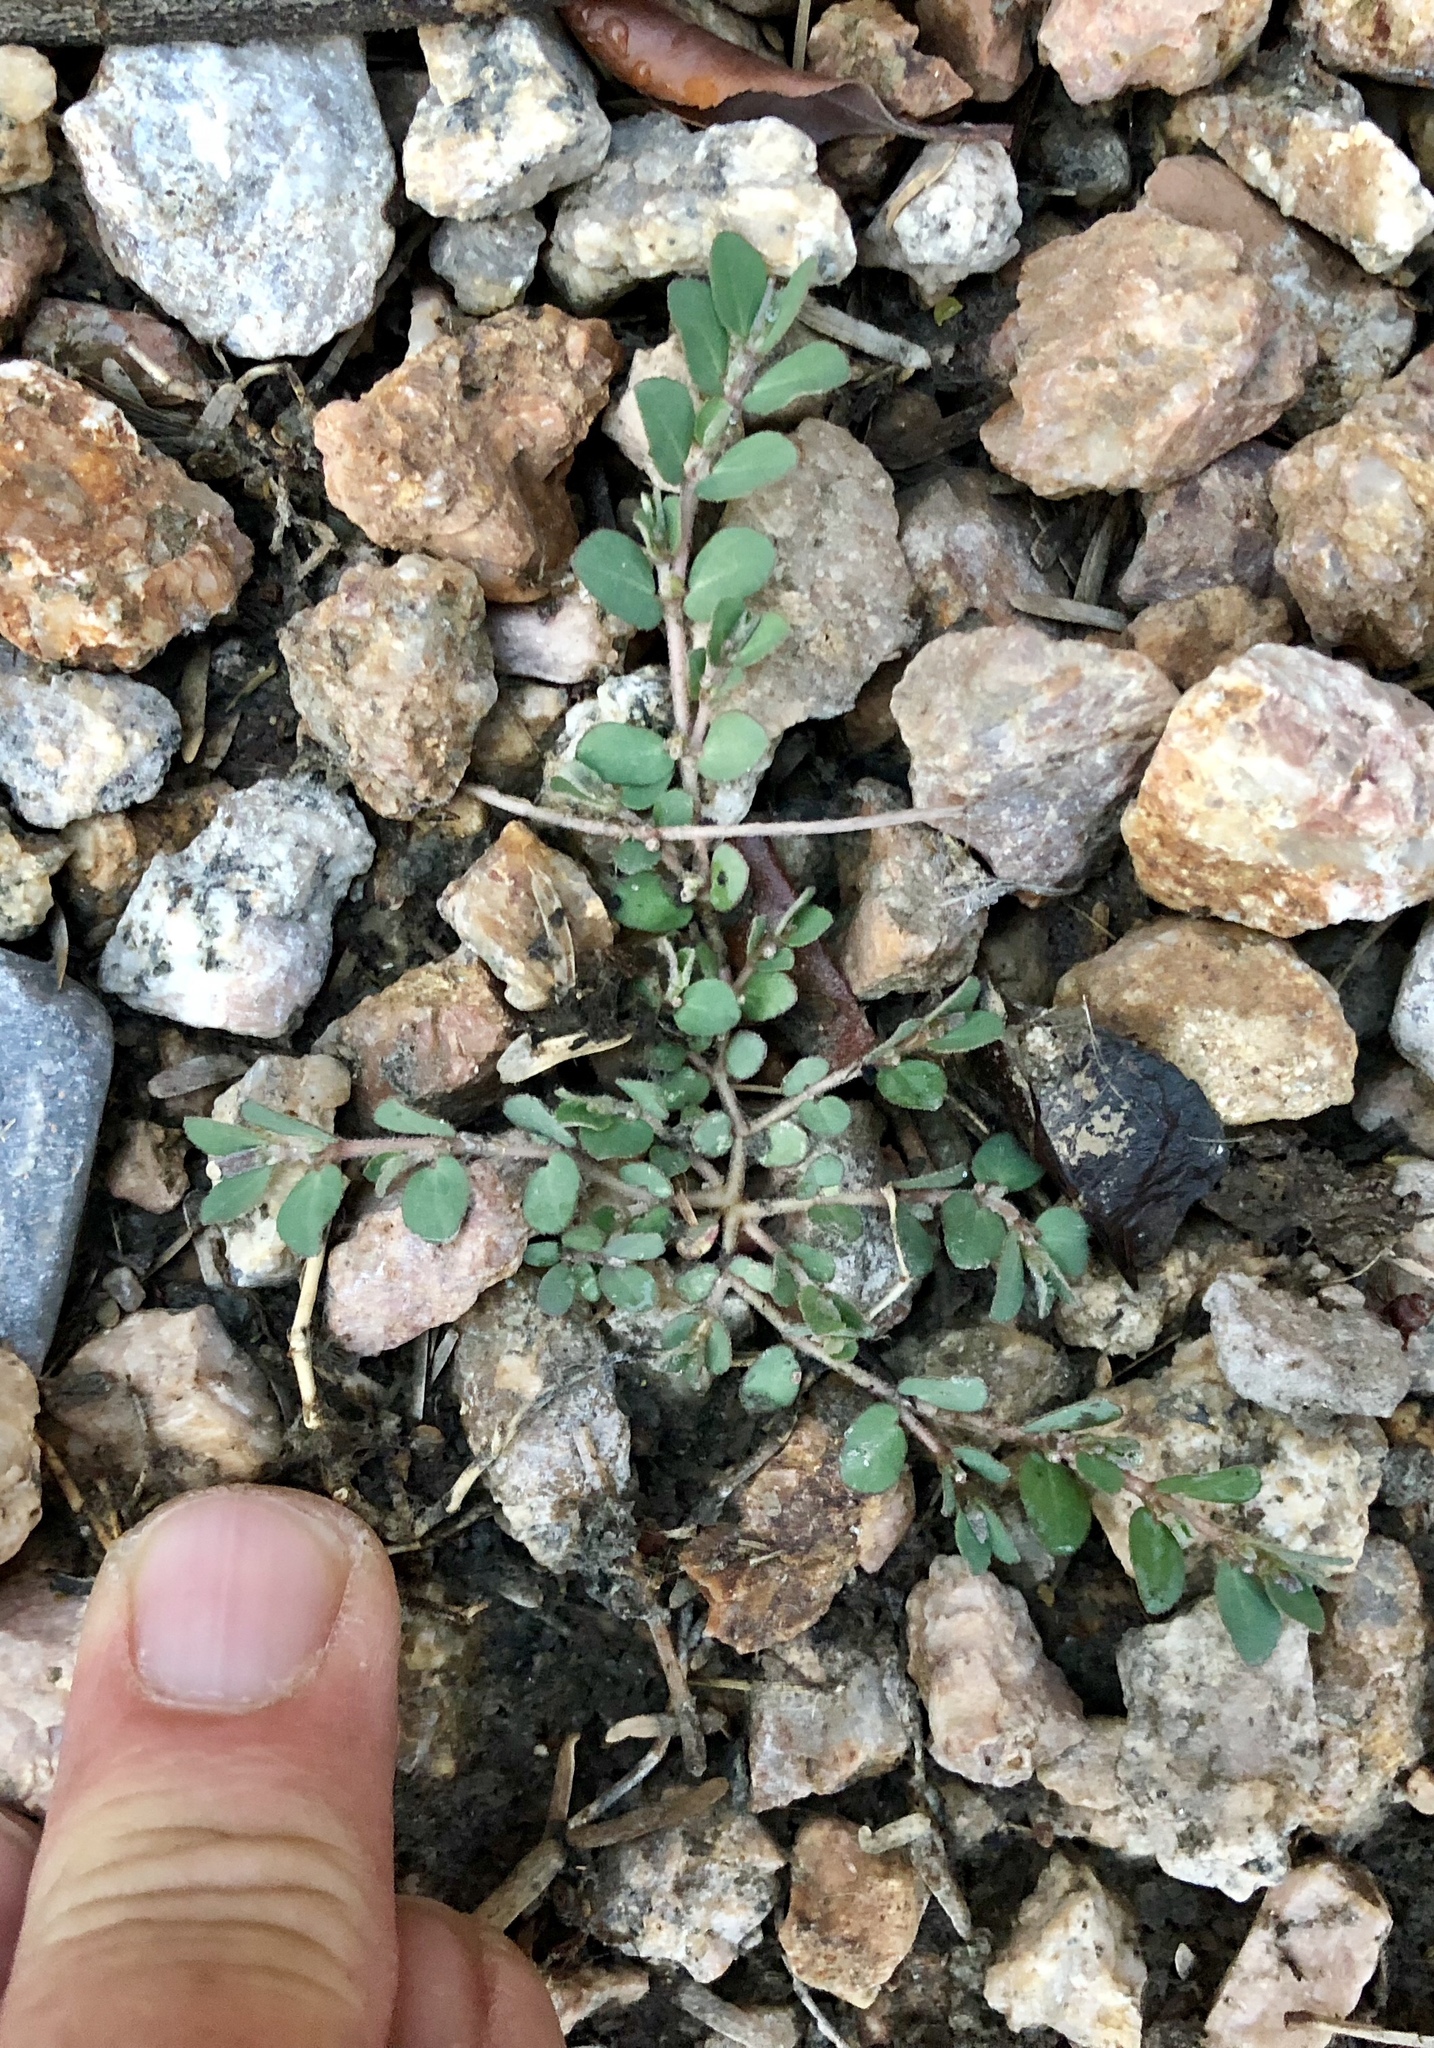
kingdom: Plantae
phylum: Tracheophyta
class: Magnoliopsida
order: Malpighiales
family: Euphorbiaceae
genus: Euphorbia
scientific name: Euphorbia prostrata
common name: Prostrate sandmat
